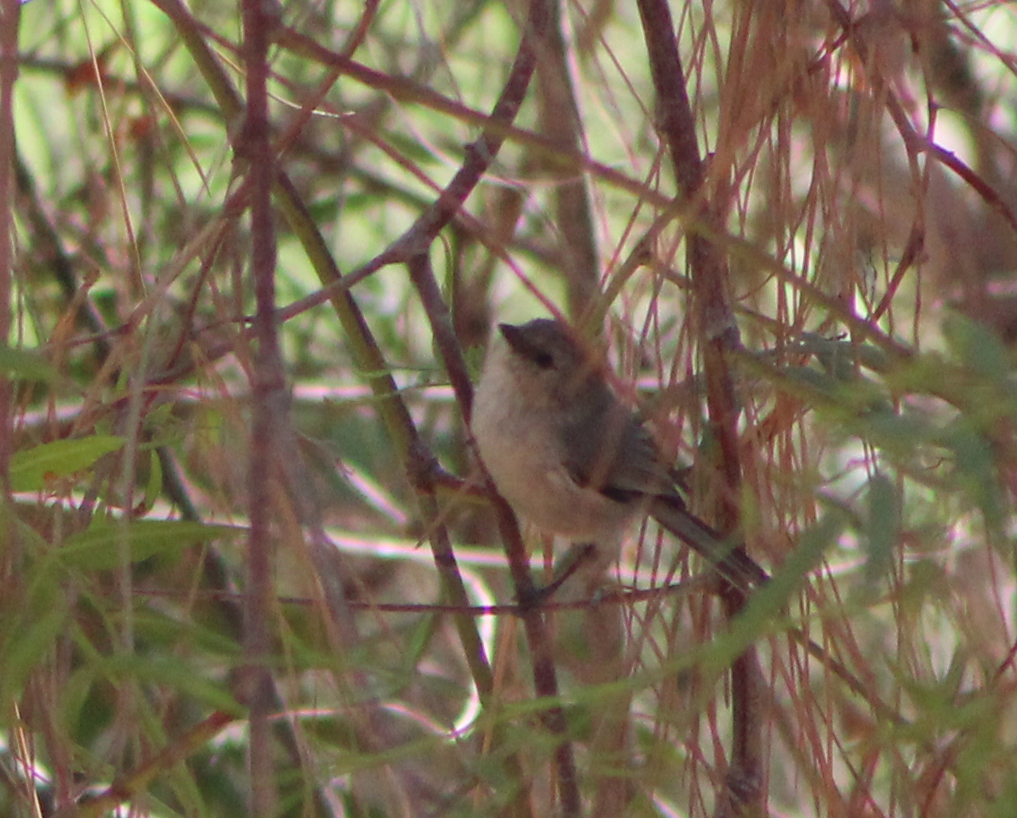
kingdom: Animalia
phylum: Chordata
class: Aves
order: Passeriformes
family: Aegithalidae
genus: Psaltriparus
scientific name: Psaltriparus minimus
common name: American bushtit
